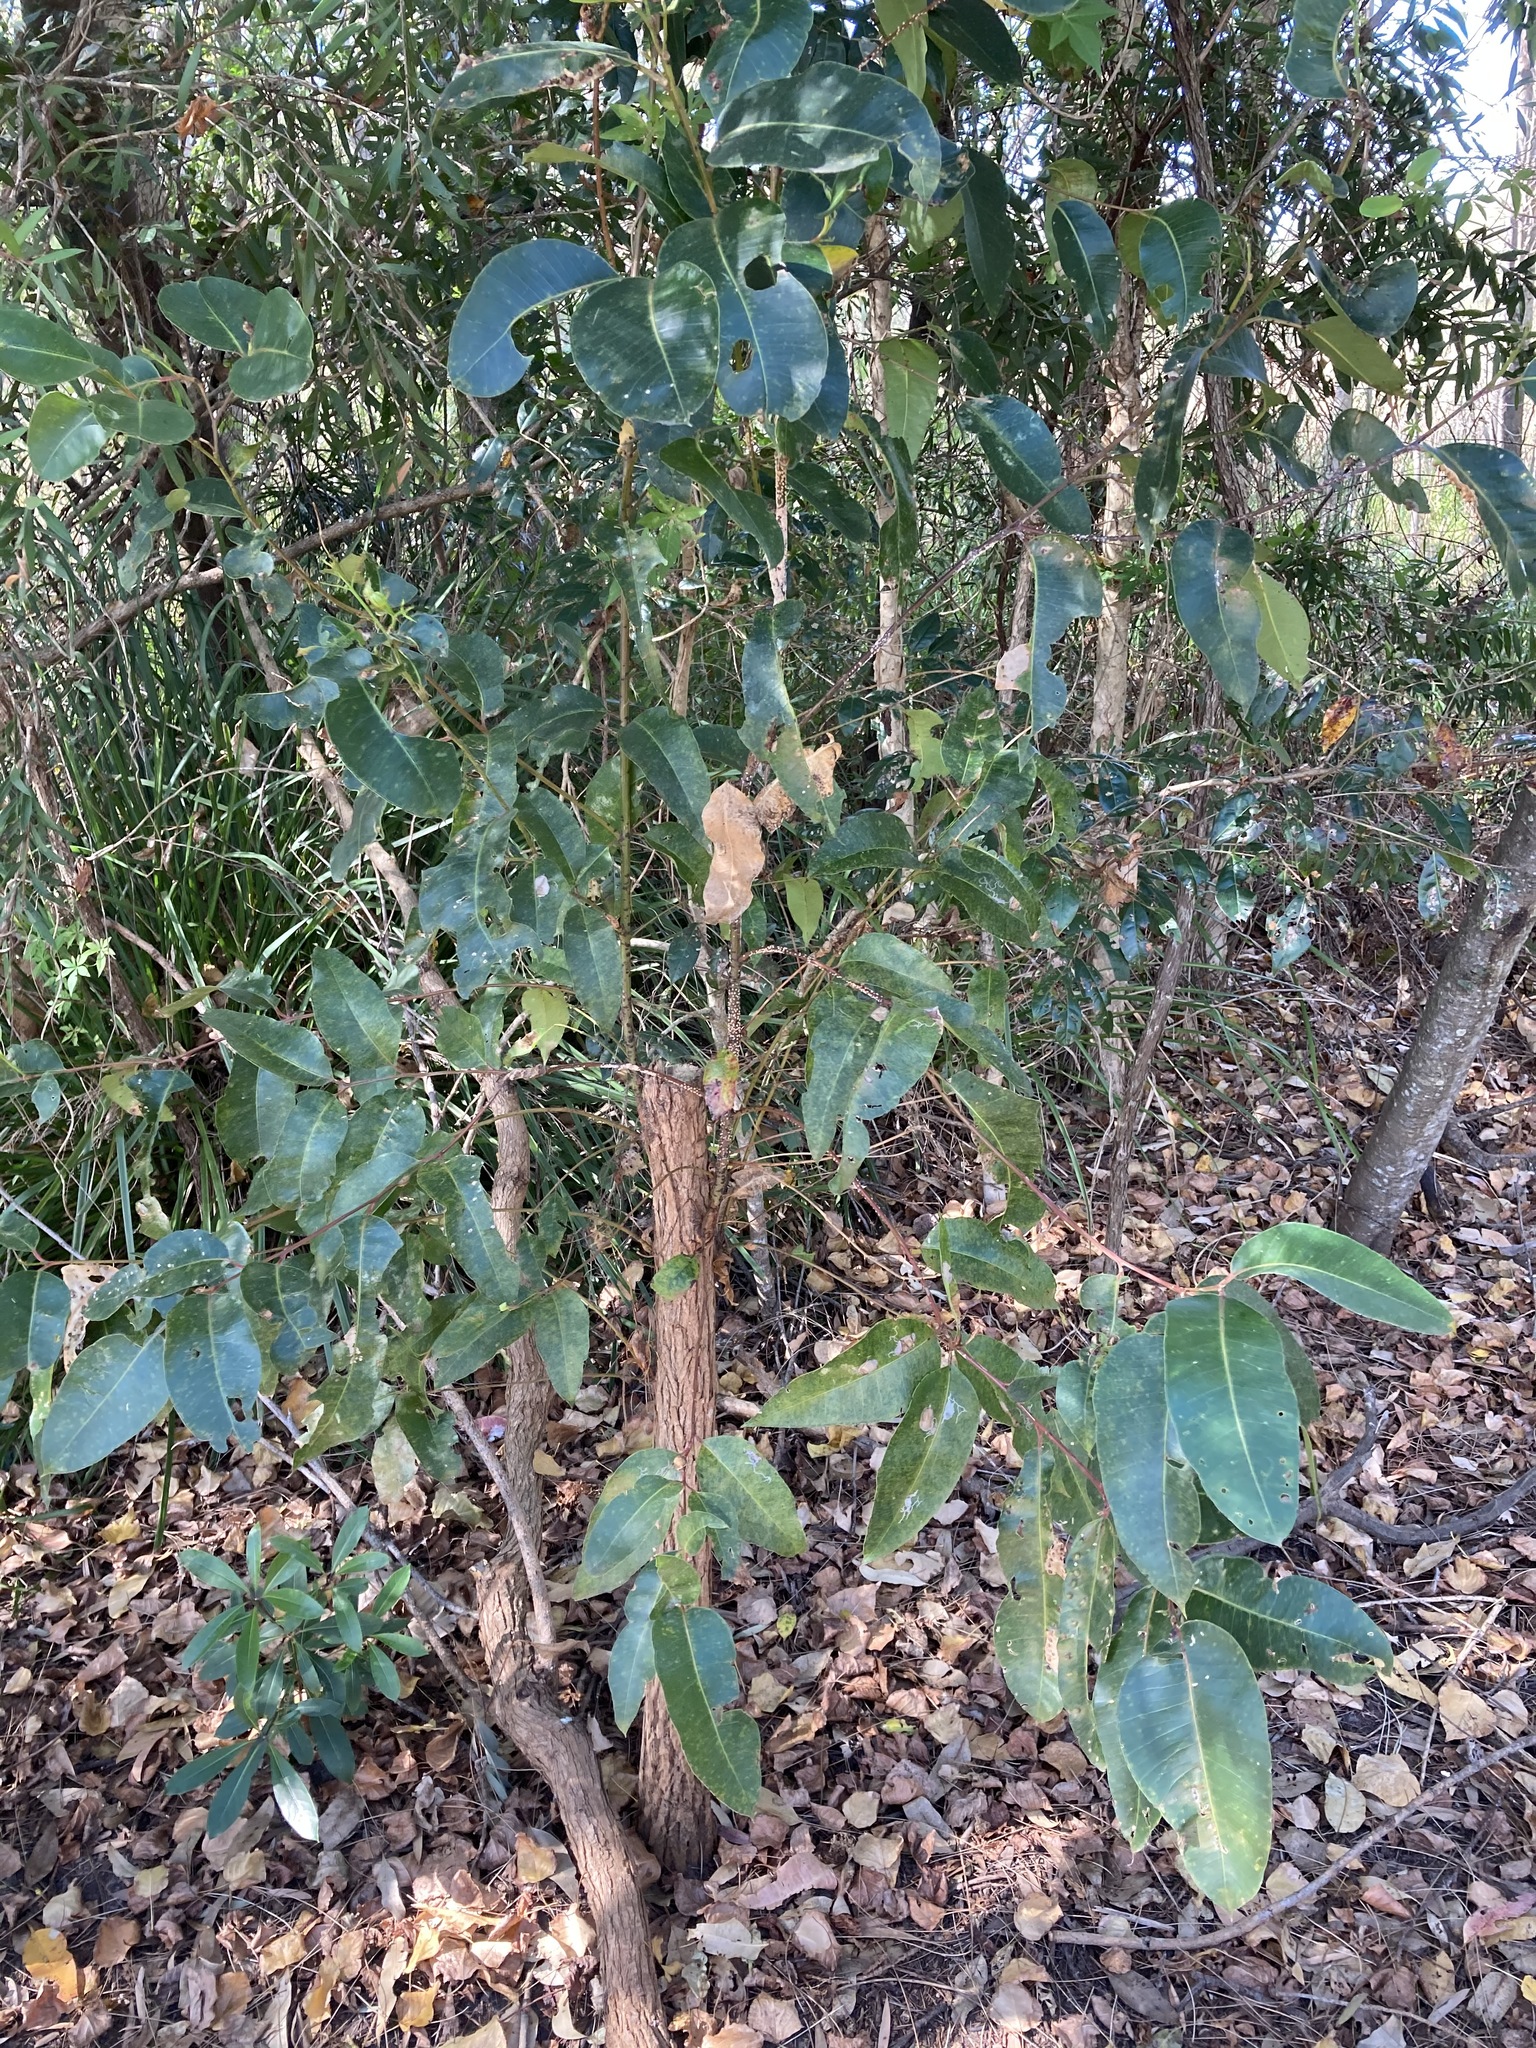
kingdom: Plantae
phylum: Tracheophyta
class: Magnoliopsida
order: Myrtales
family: Myrtaceae
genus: Eucalyptus
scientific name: Eucalyptus robusta
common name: Swampmahogany
